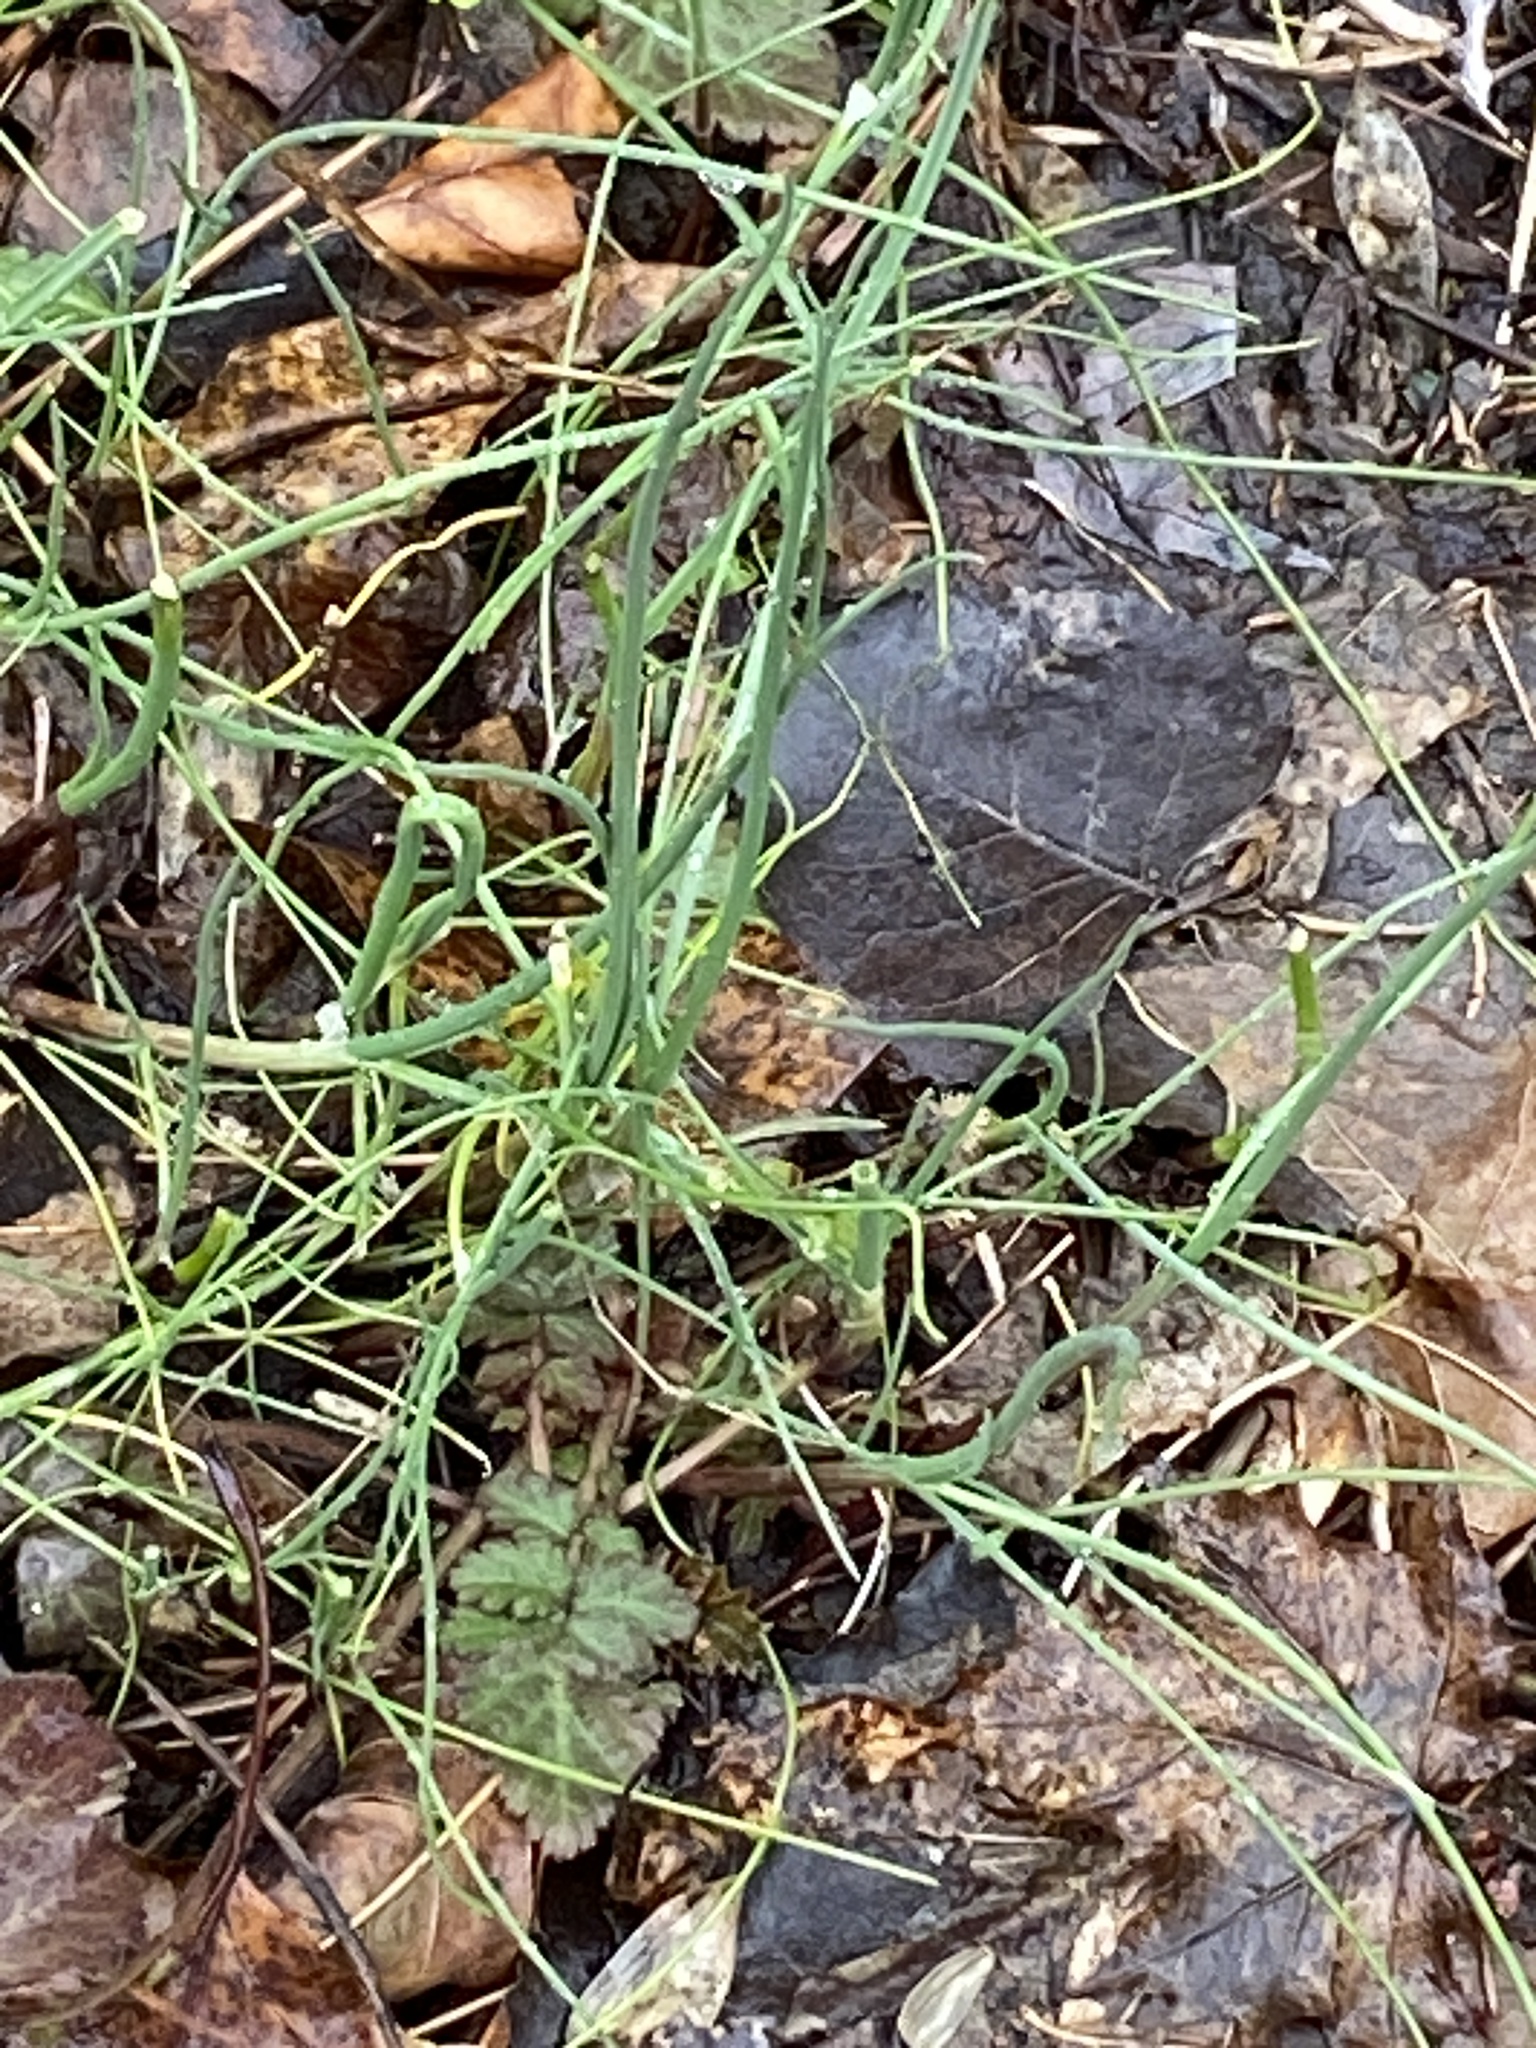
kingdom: Plantae
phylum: Tracheophyta
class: Liliopsida
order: Asparagales
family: Amaryllidaceae
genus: Allium
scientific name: Allium vineale
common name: Crow garlic
